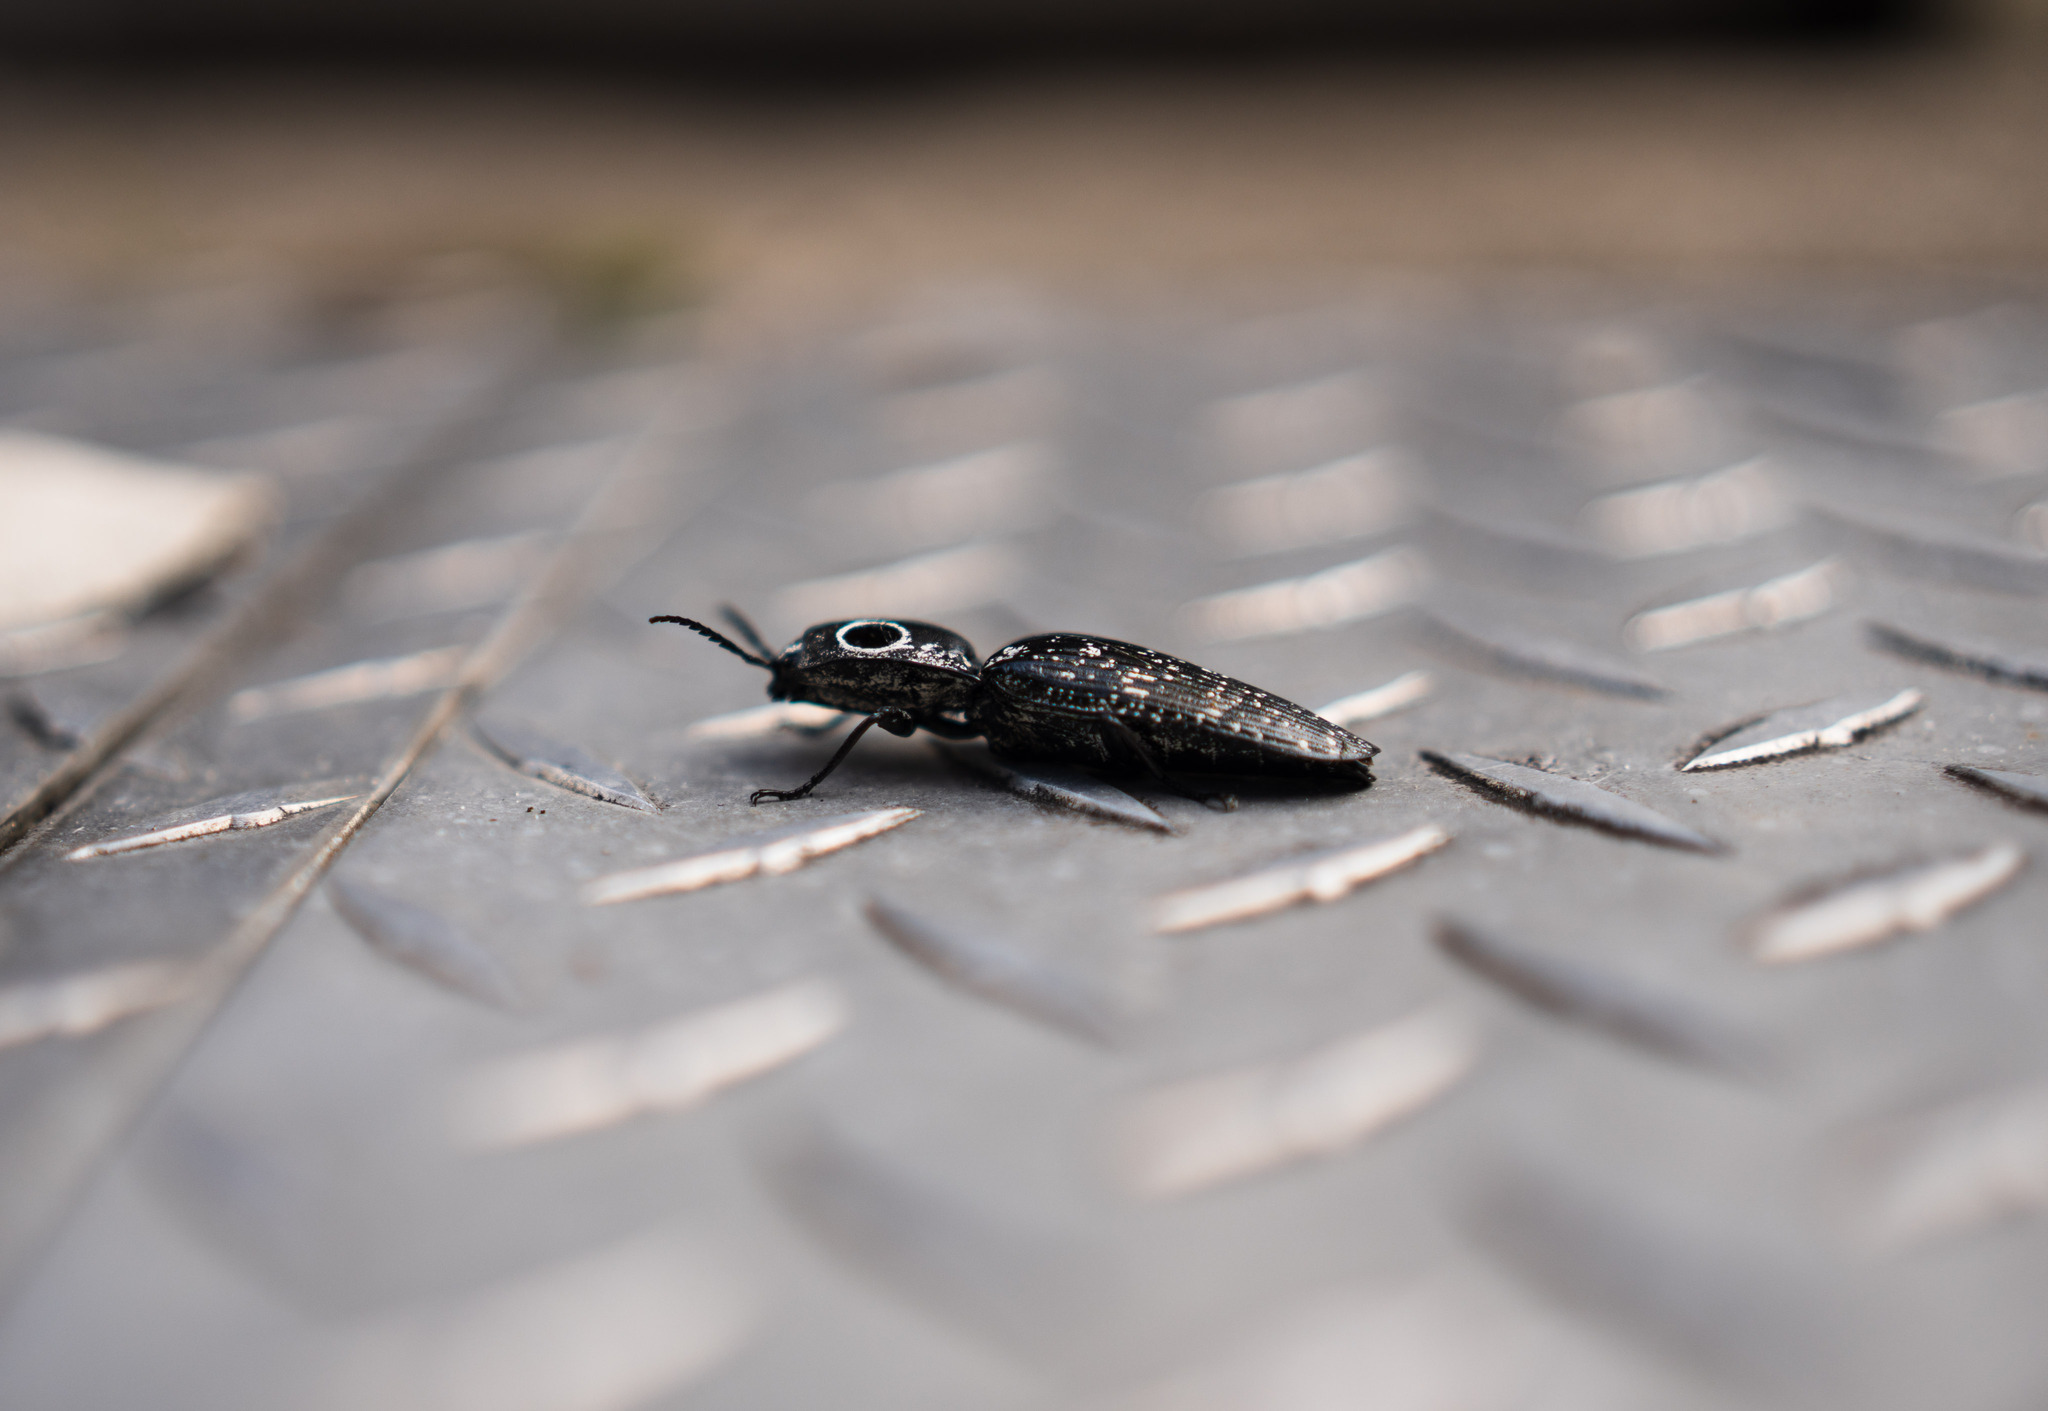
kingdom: Animalia
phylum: Arthropoda
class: Insecta
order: Coleoptera
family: Elateridae
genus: Alaus
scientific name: Alaus oculatus
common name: Eastern eyed click beetle
